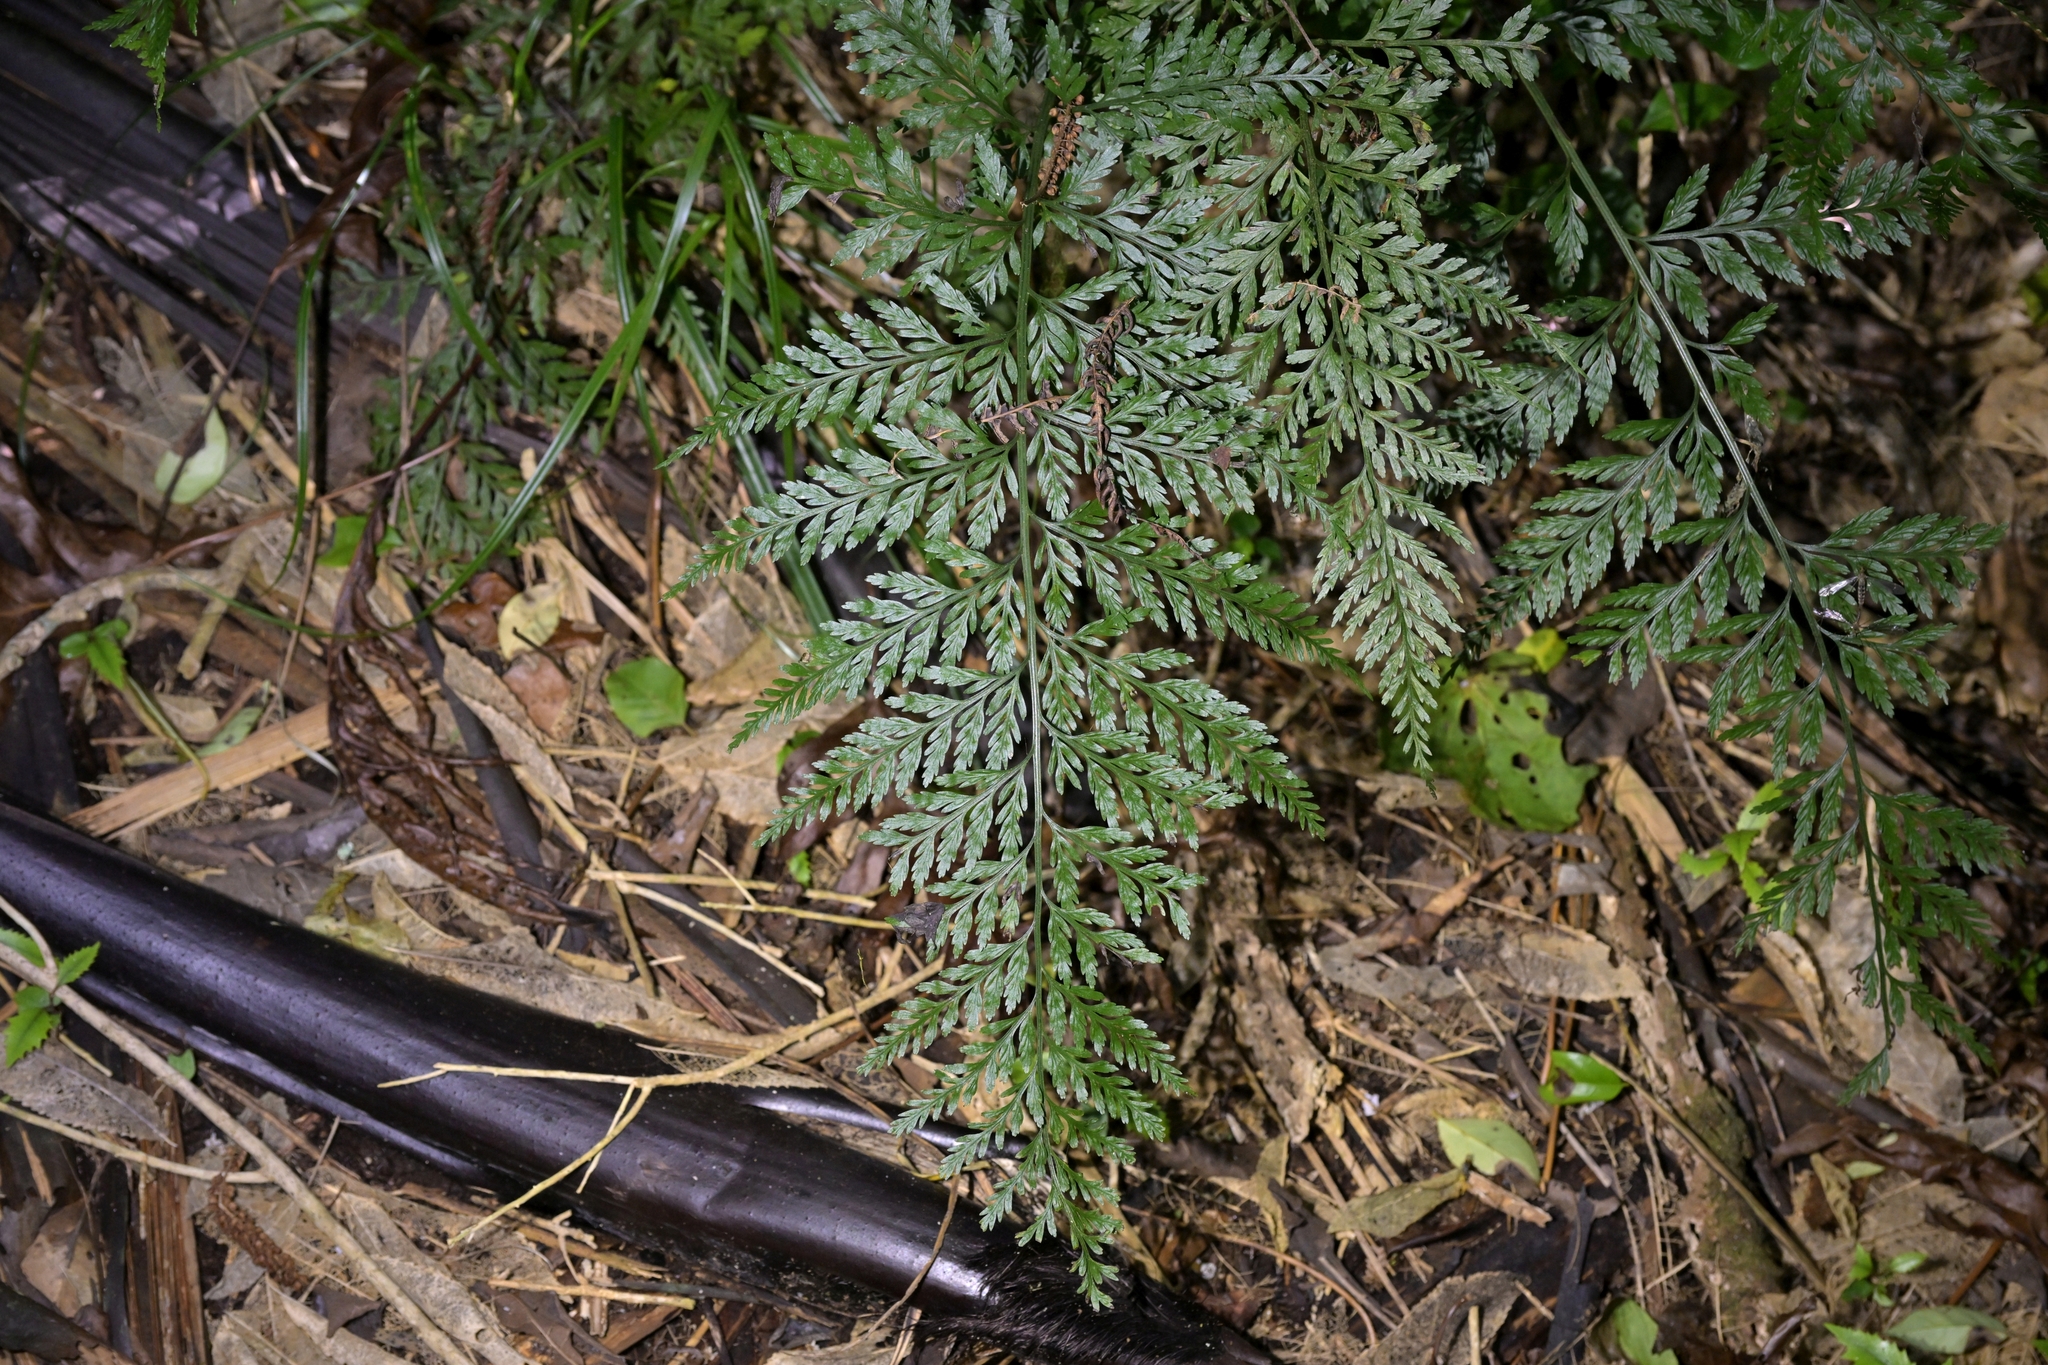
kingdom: Plantae
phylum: Tracheophyta
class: Polypodiopsida
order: Polypodiales
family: Aspleniaceae
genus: Asplenium
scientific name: Asplenium bulbiferum
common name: Mother fern
